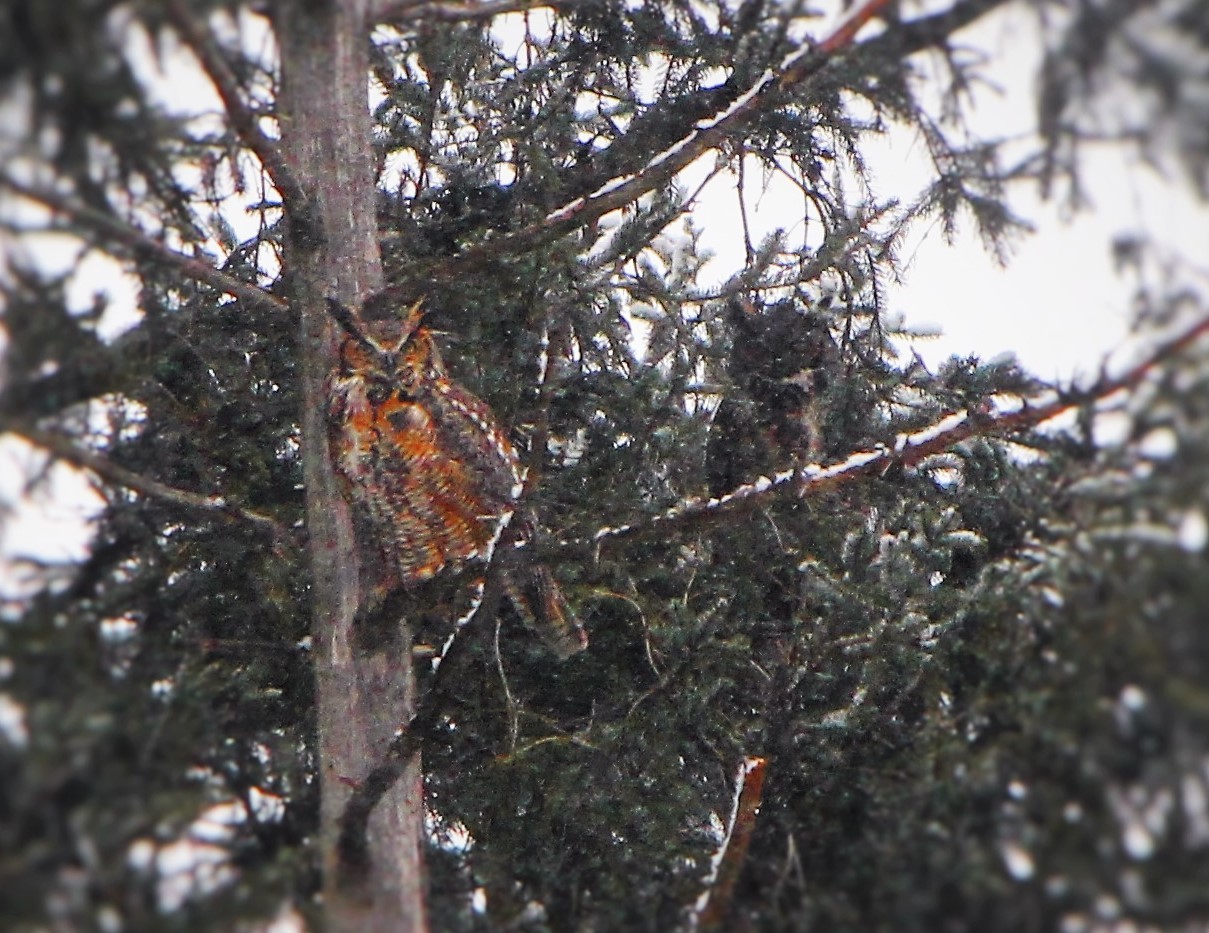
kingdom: Animalia
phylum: Chordata
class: Aves
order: Strigiformes
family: Strigidae
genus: Bubo
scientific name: Bubo virginianus
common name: Great horned owl
